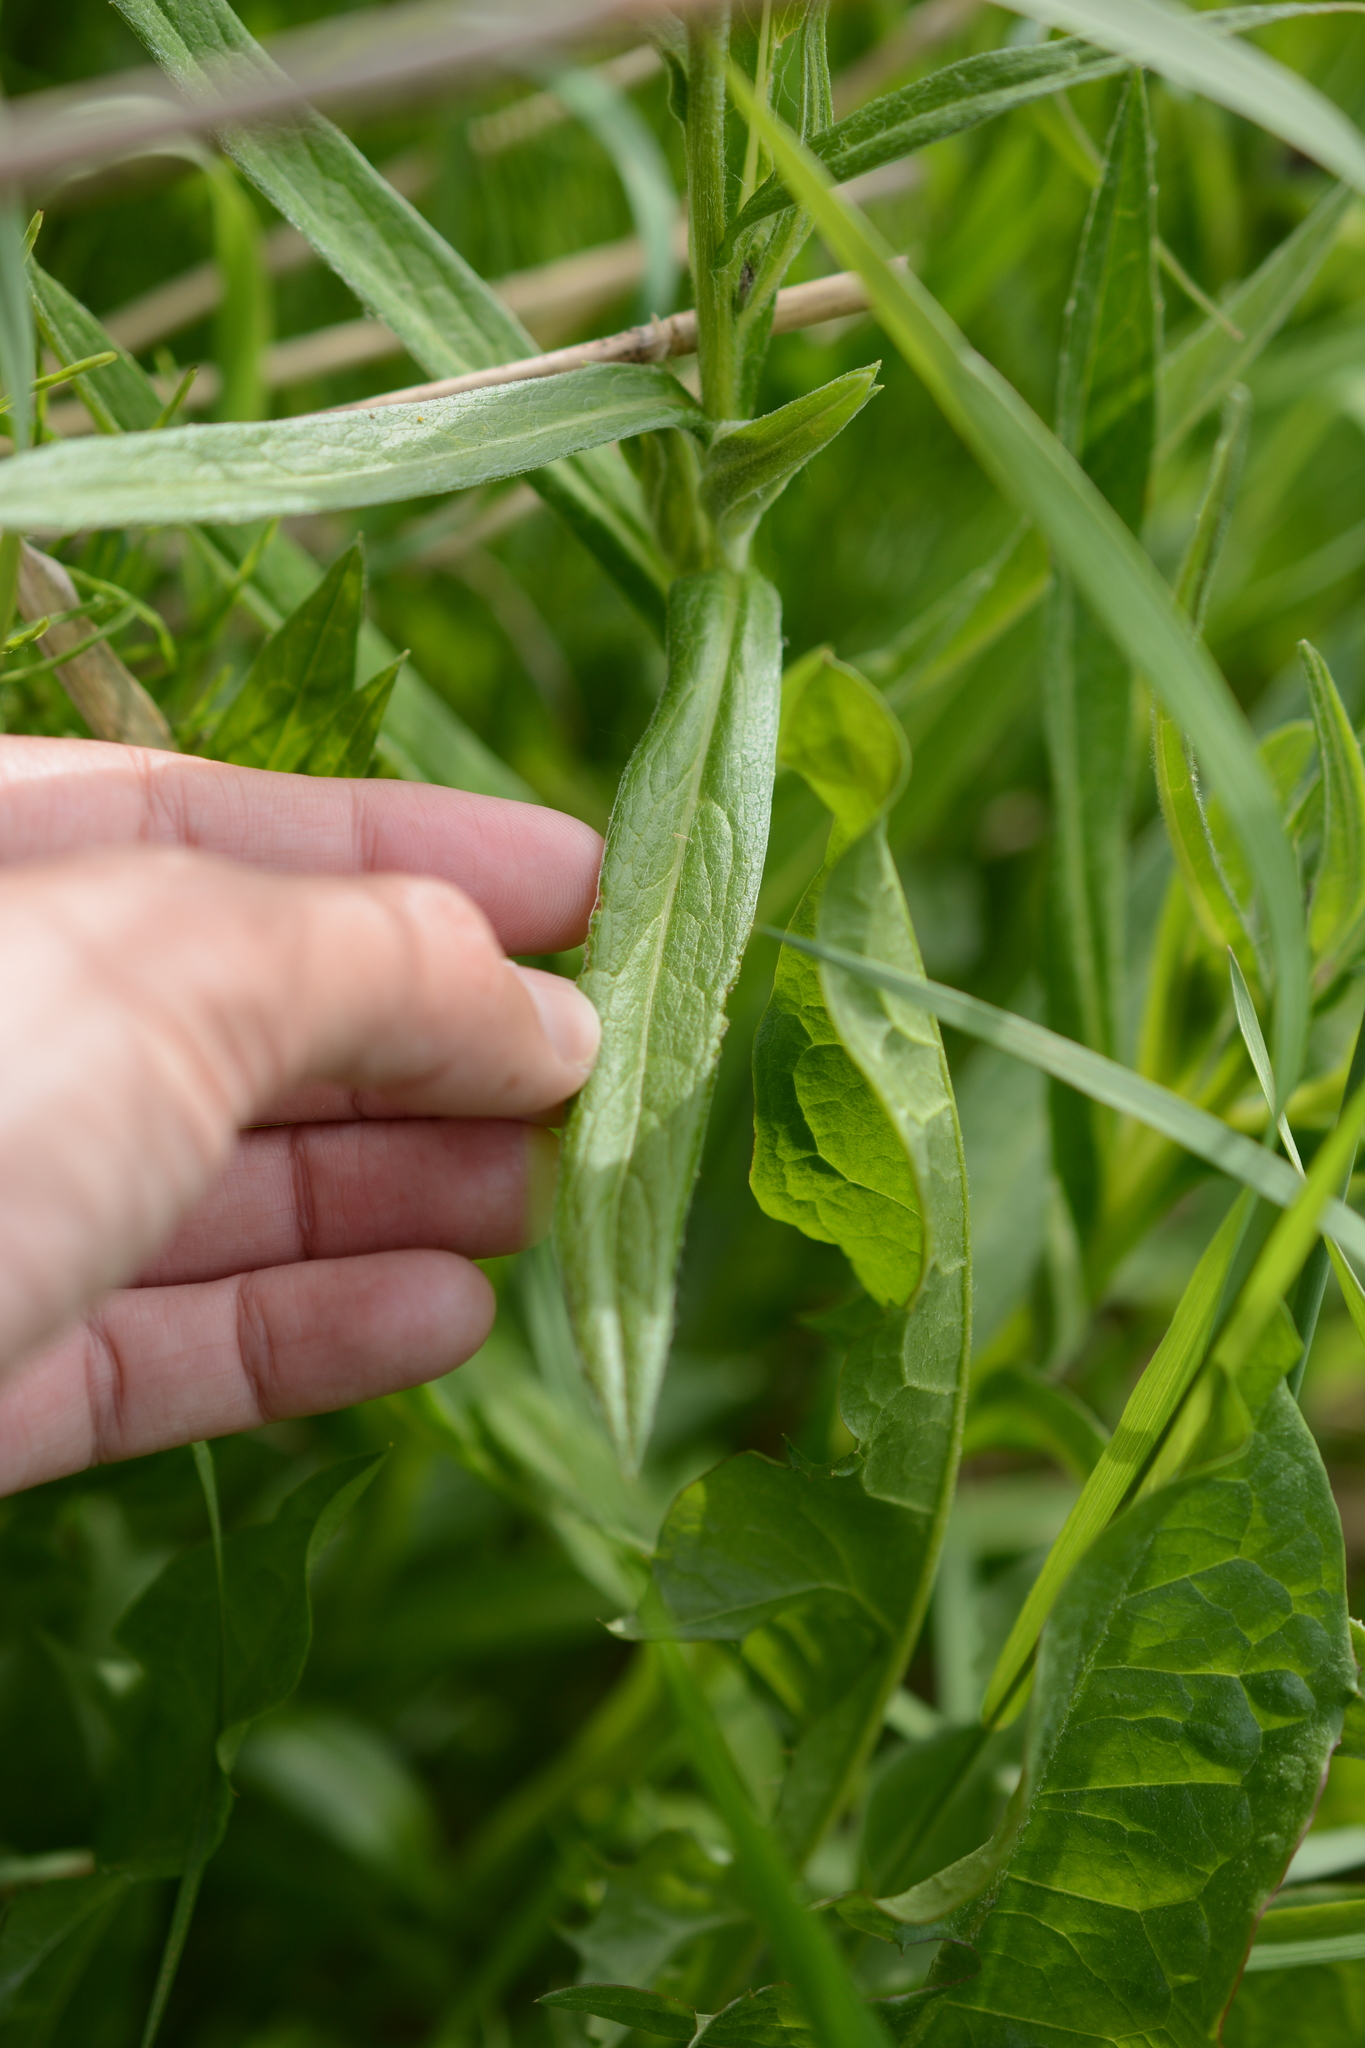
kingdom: Plantae
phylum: Tracheophyta
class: Magnoliopsida
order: Asterales
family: Asteraceae
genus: Centaurea
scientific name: Centaurea montana
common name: Perennial cornflower
